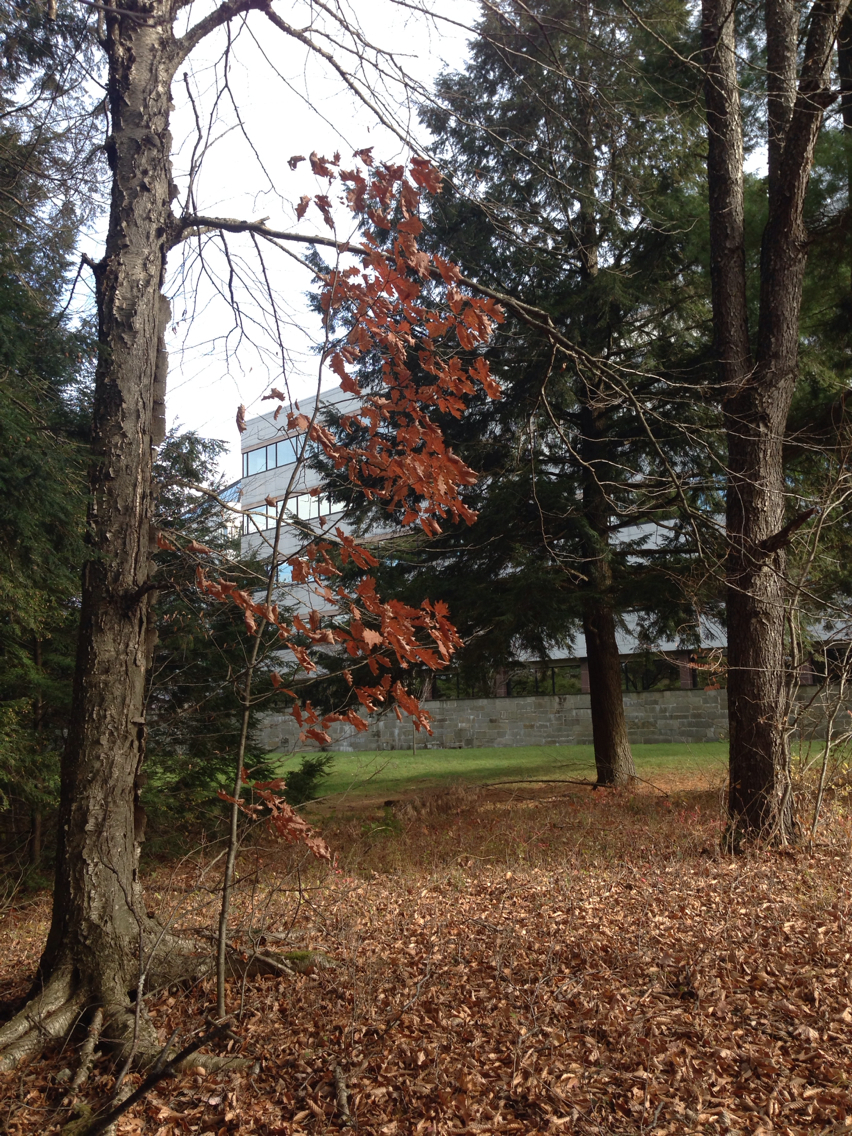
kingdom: Plantae
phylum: Tracheophyta
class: Magnoliopsida
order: Fagales
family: Fagaceae
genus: Quercus
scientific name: Quercus rubra
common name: Red oak
